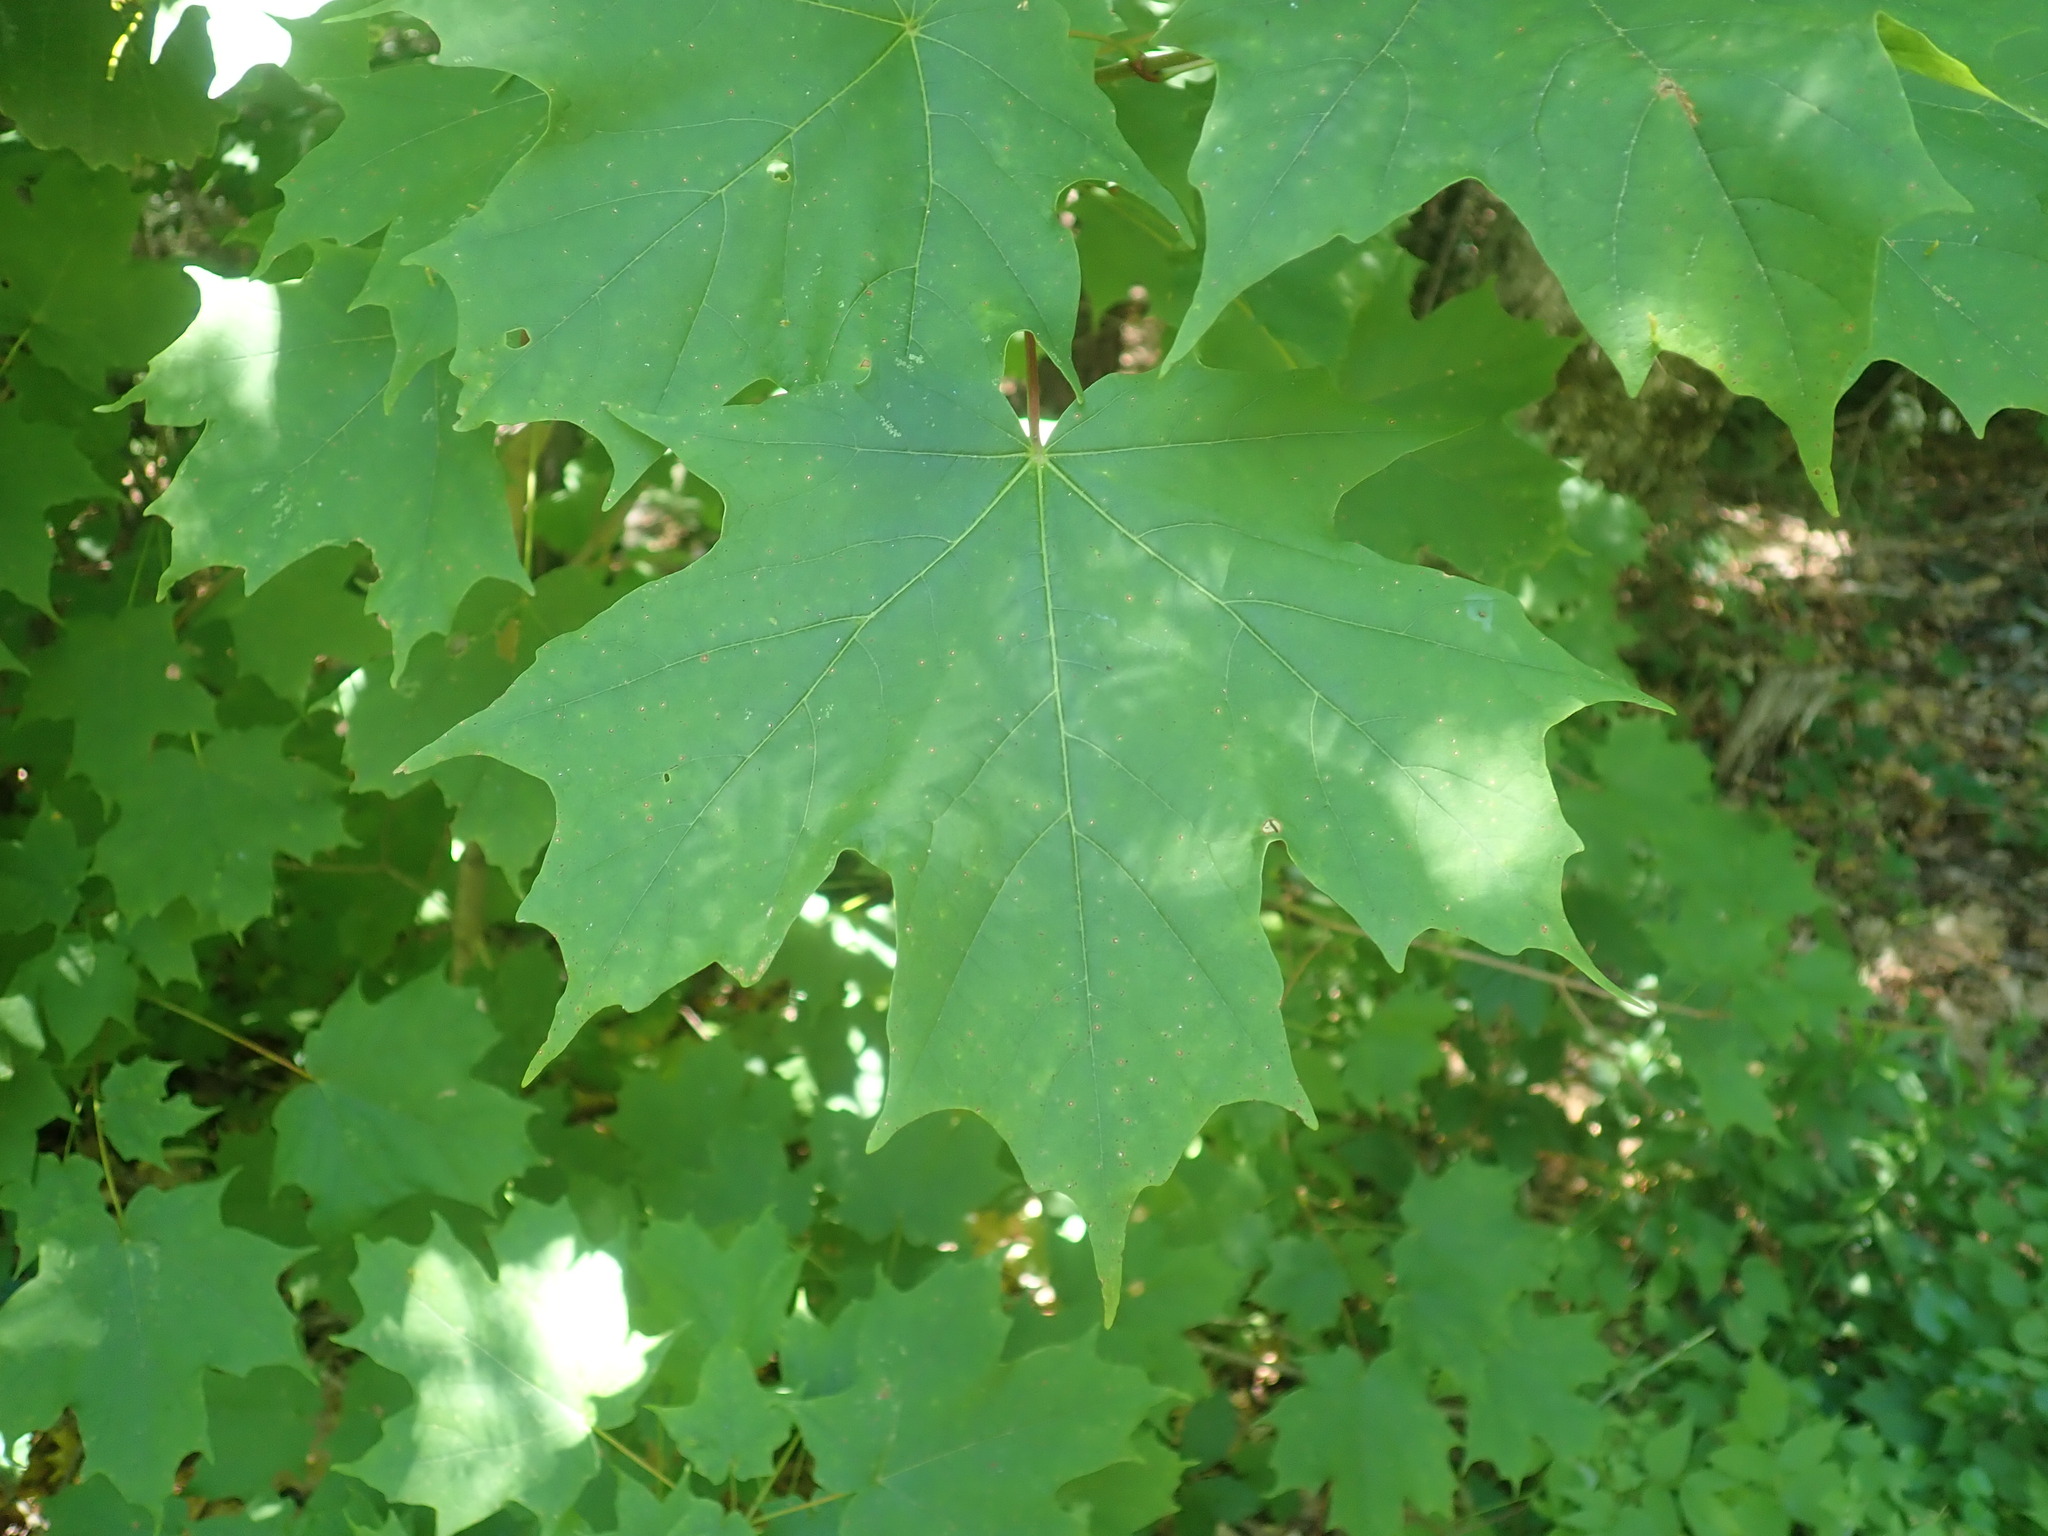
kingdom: Plantae
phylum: Tracheophyta
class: Magnoliopsida
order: Sapindales
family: Sapindaceae
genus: Acer
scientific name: Acer saccharum
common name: Sugar maple
